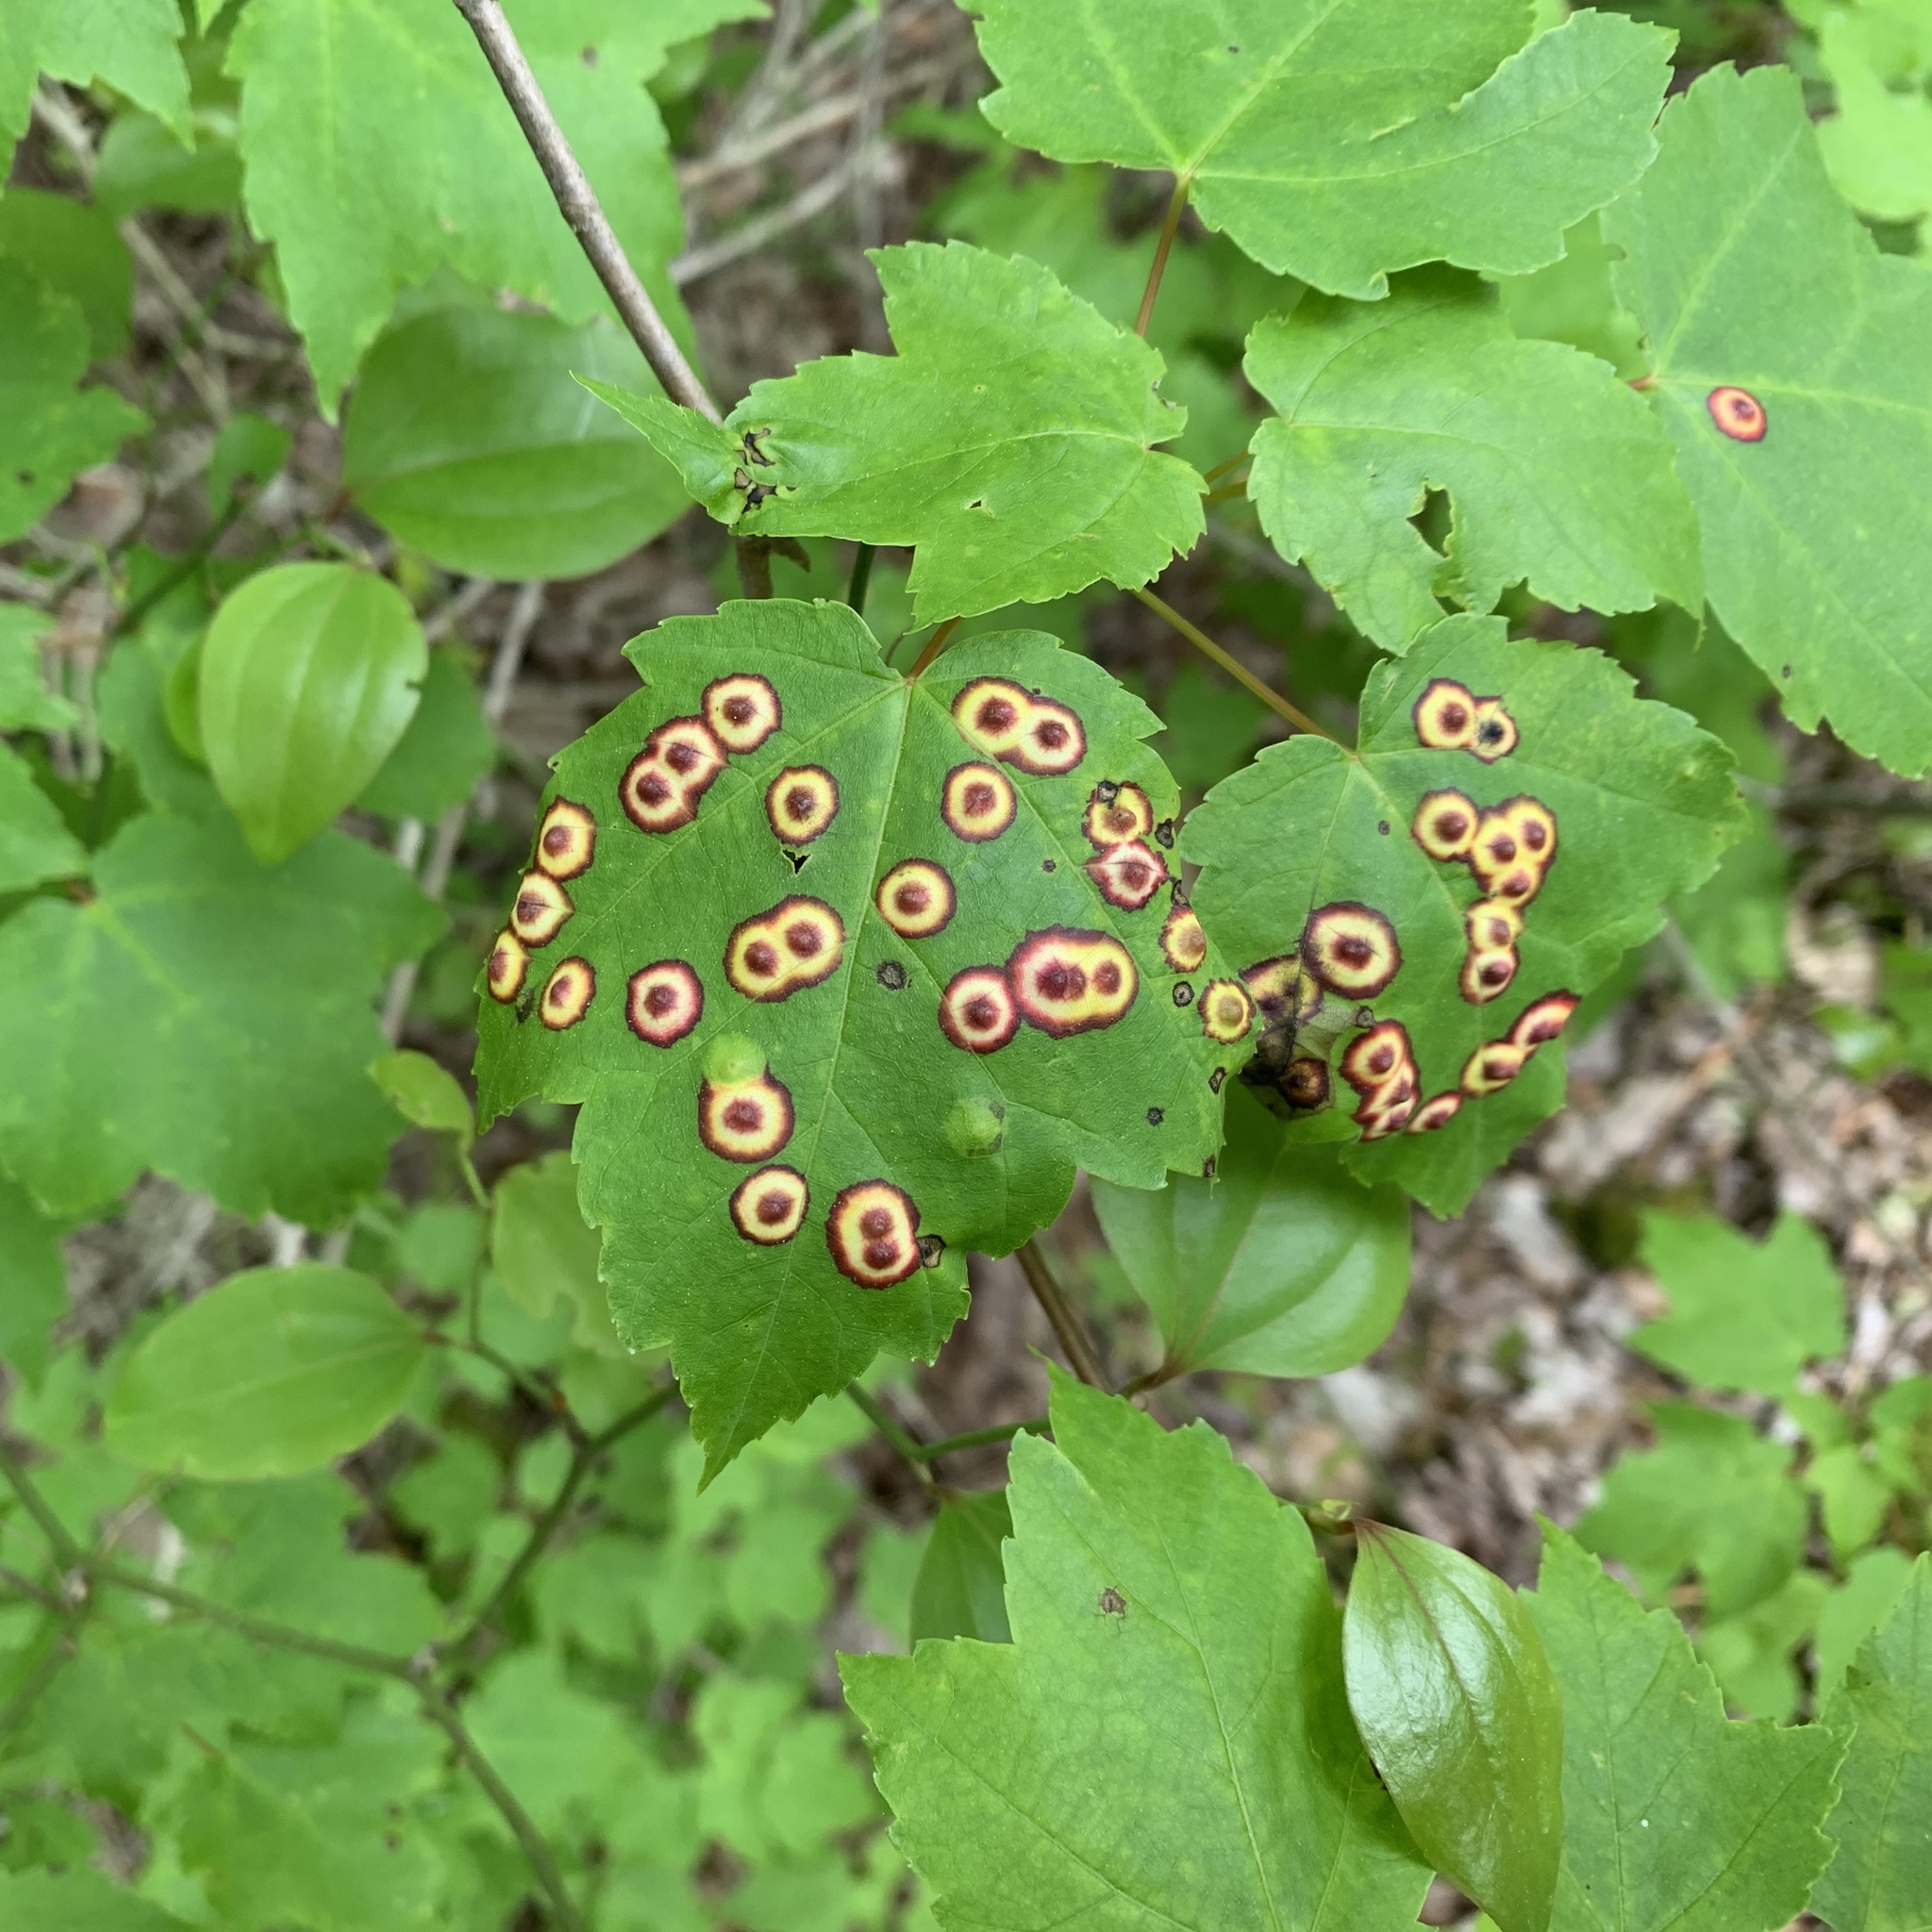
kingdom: Animalia
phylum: Arthropoda
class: Insecta
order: Diptera
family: Cecidomyiidae
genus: Acericecis
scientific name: Acericecis ocellaris
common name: Ocellate gall midge
